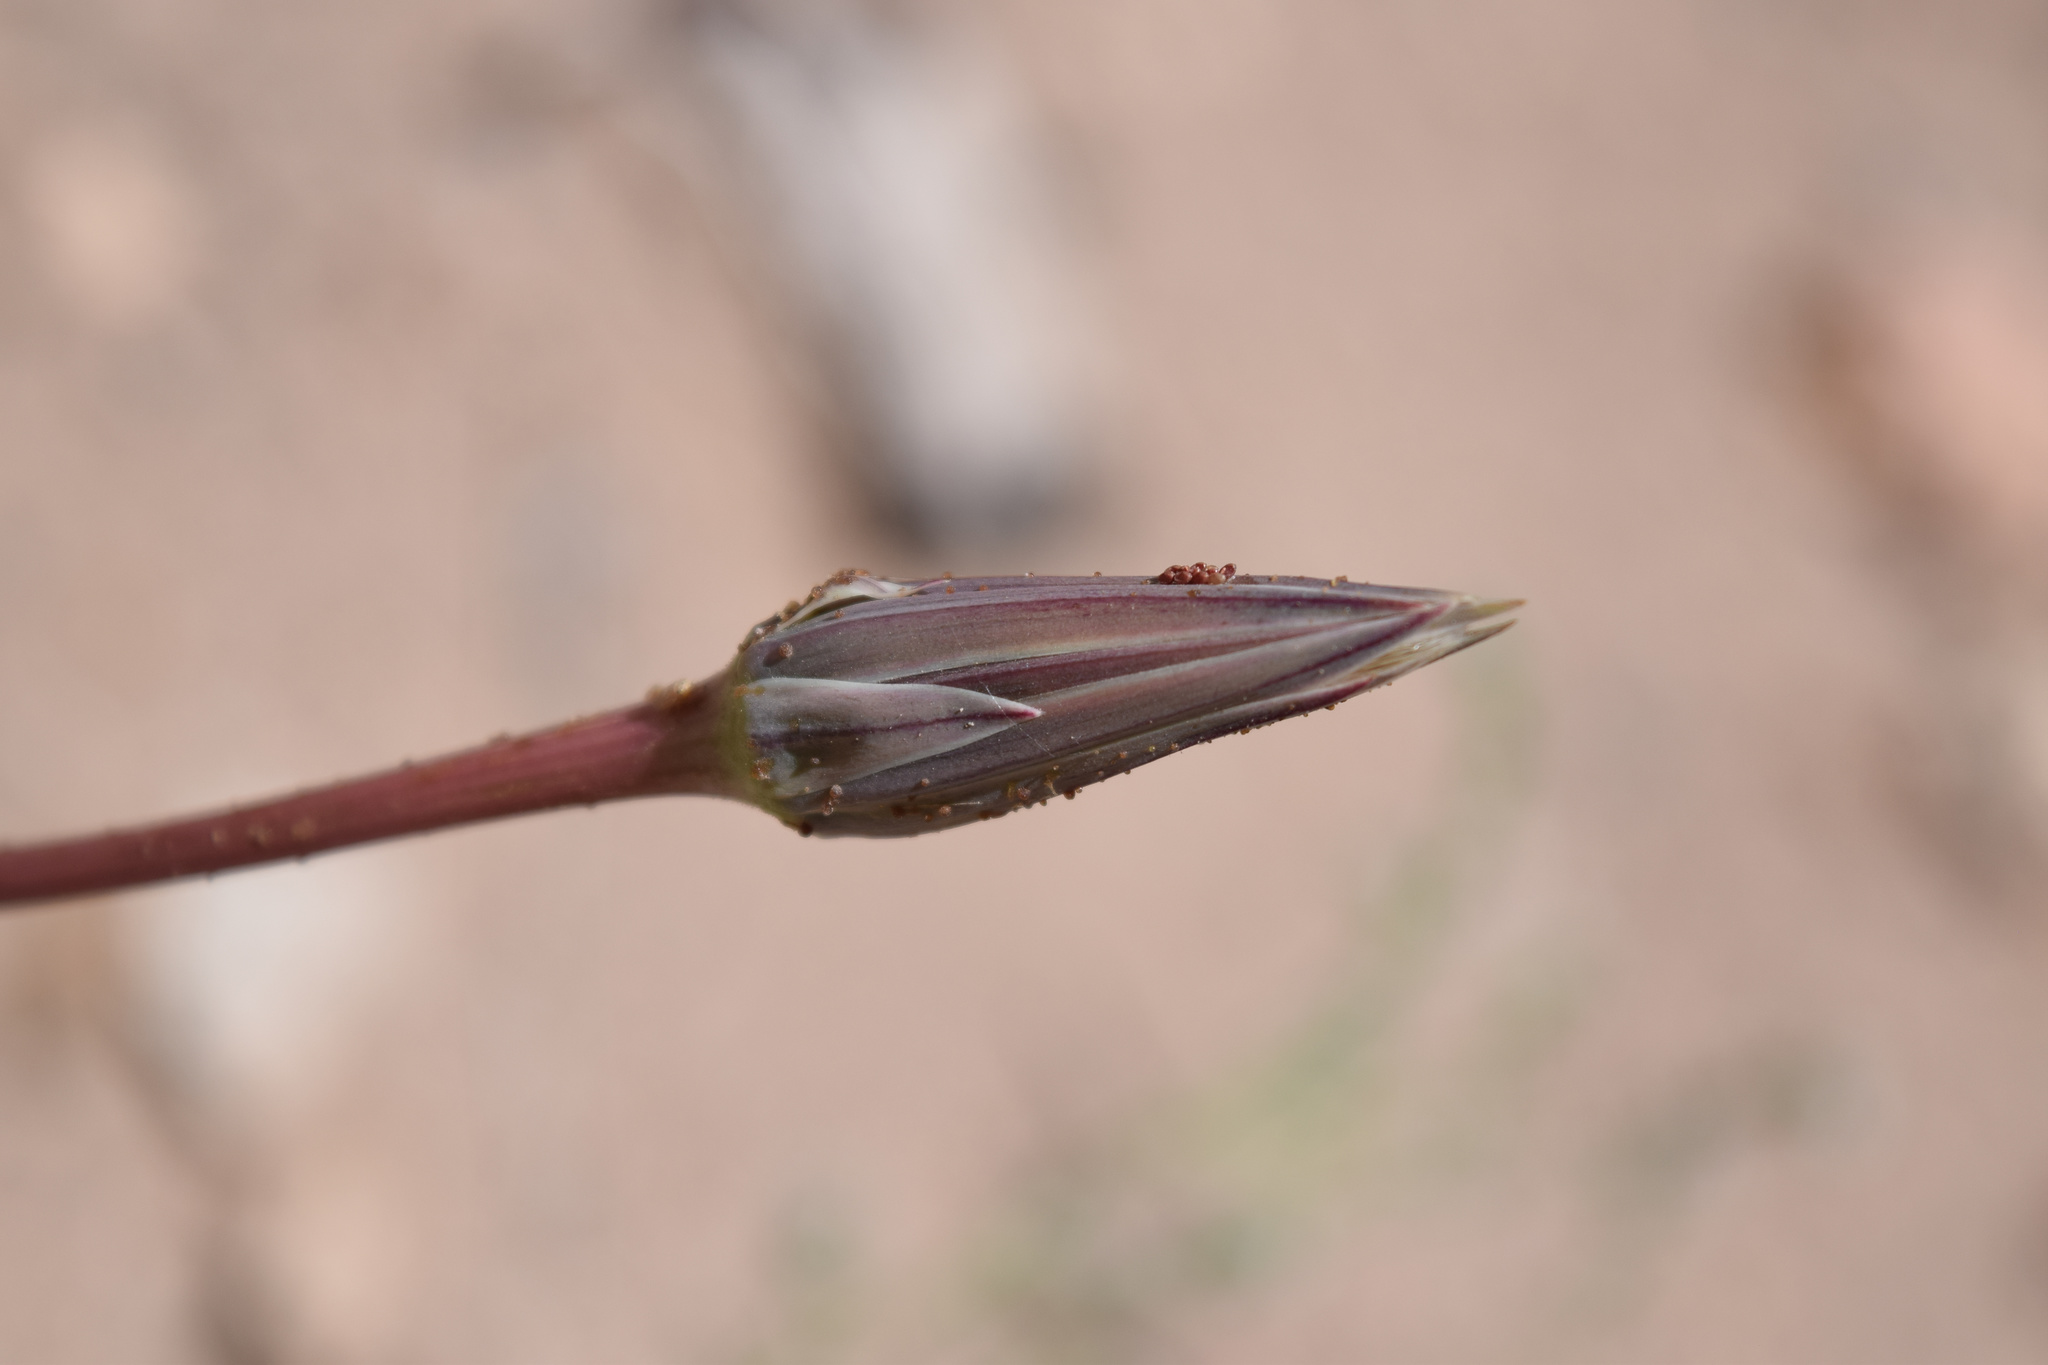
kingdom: Plantae
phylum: Tracheophyta
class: Magnoliopsida
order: Asterales
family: Asteraceae
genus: Microseris
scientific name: Microseris lindleyi
